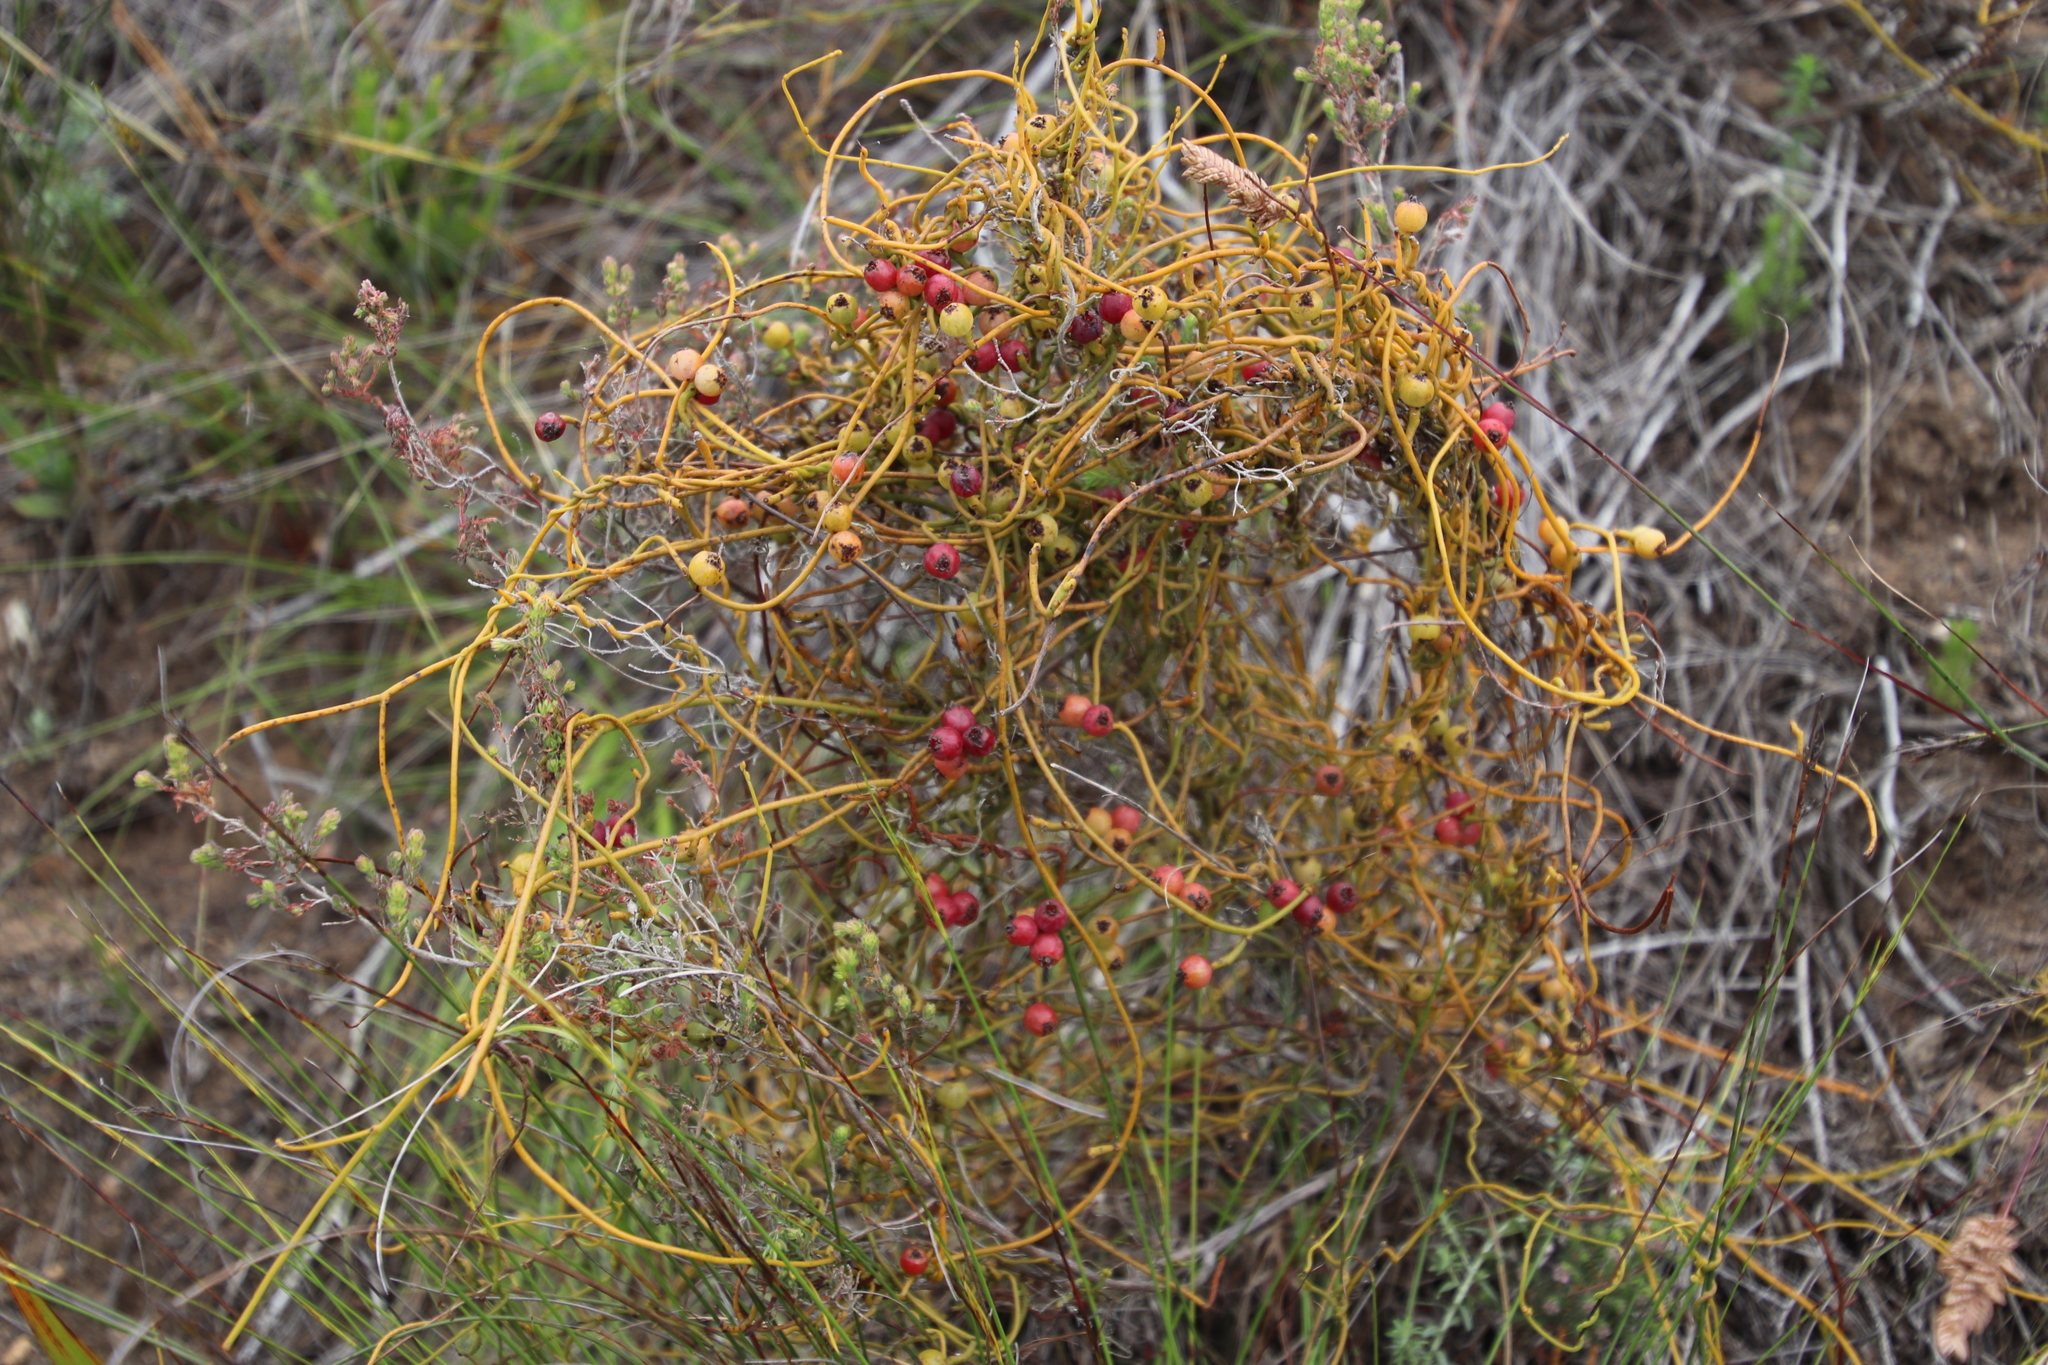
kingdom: Plantae
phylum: Tracheophyta
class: Magnoliopsida
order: Laurales
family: Lauraceae
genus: Cassytha
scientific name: Cassytha ciliolata
